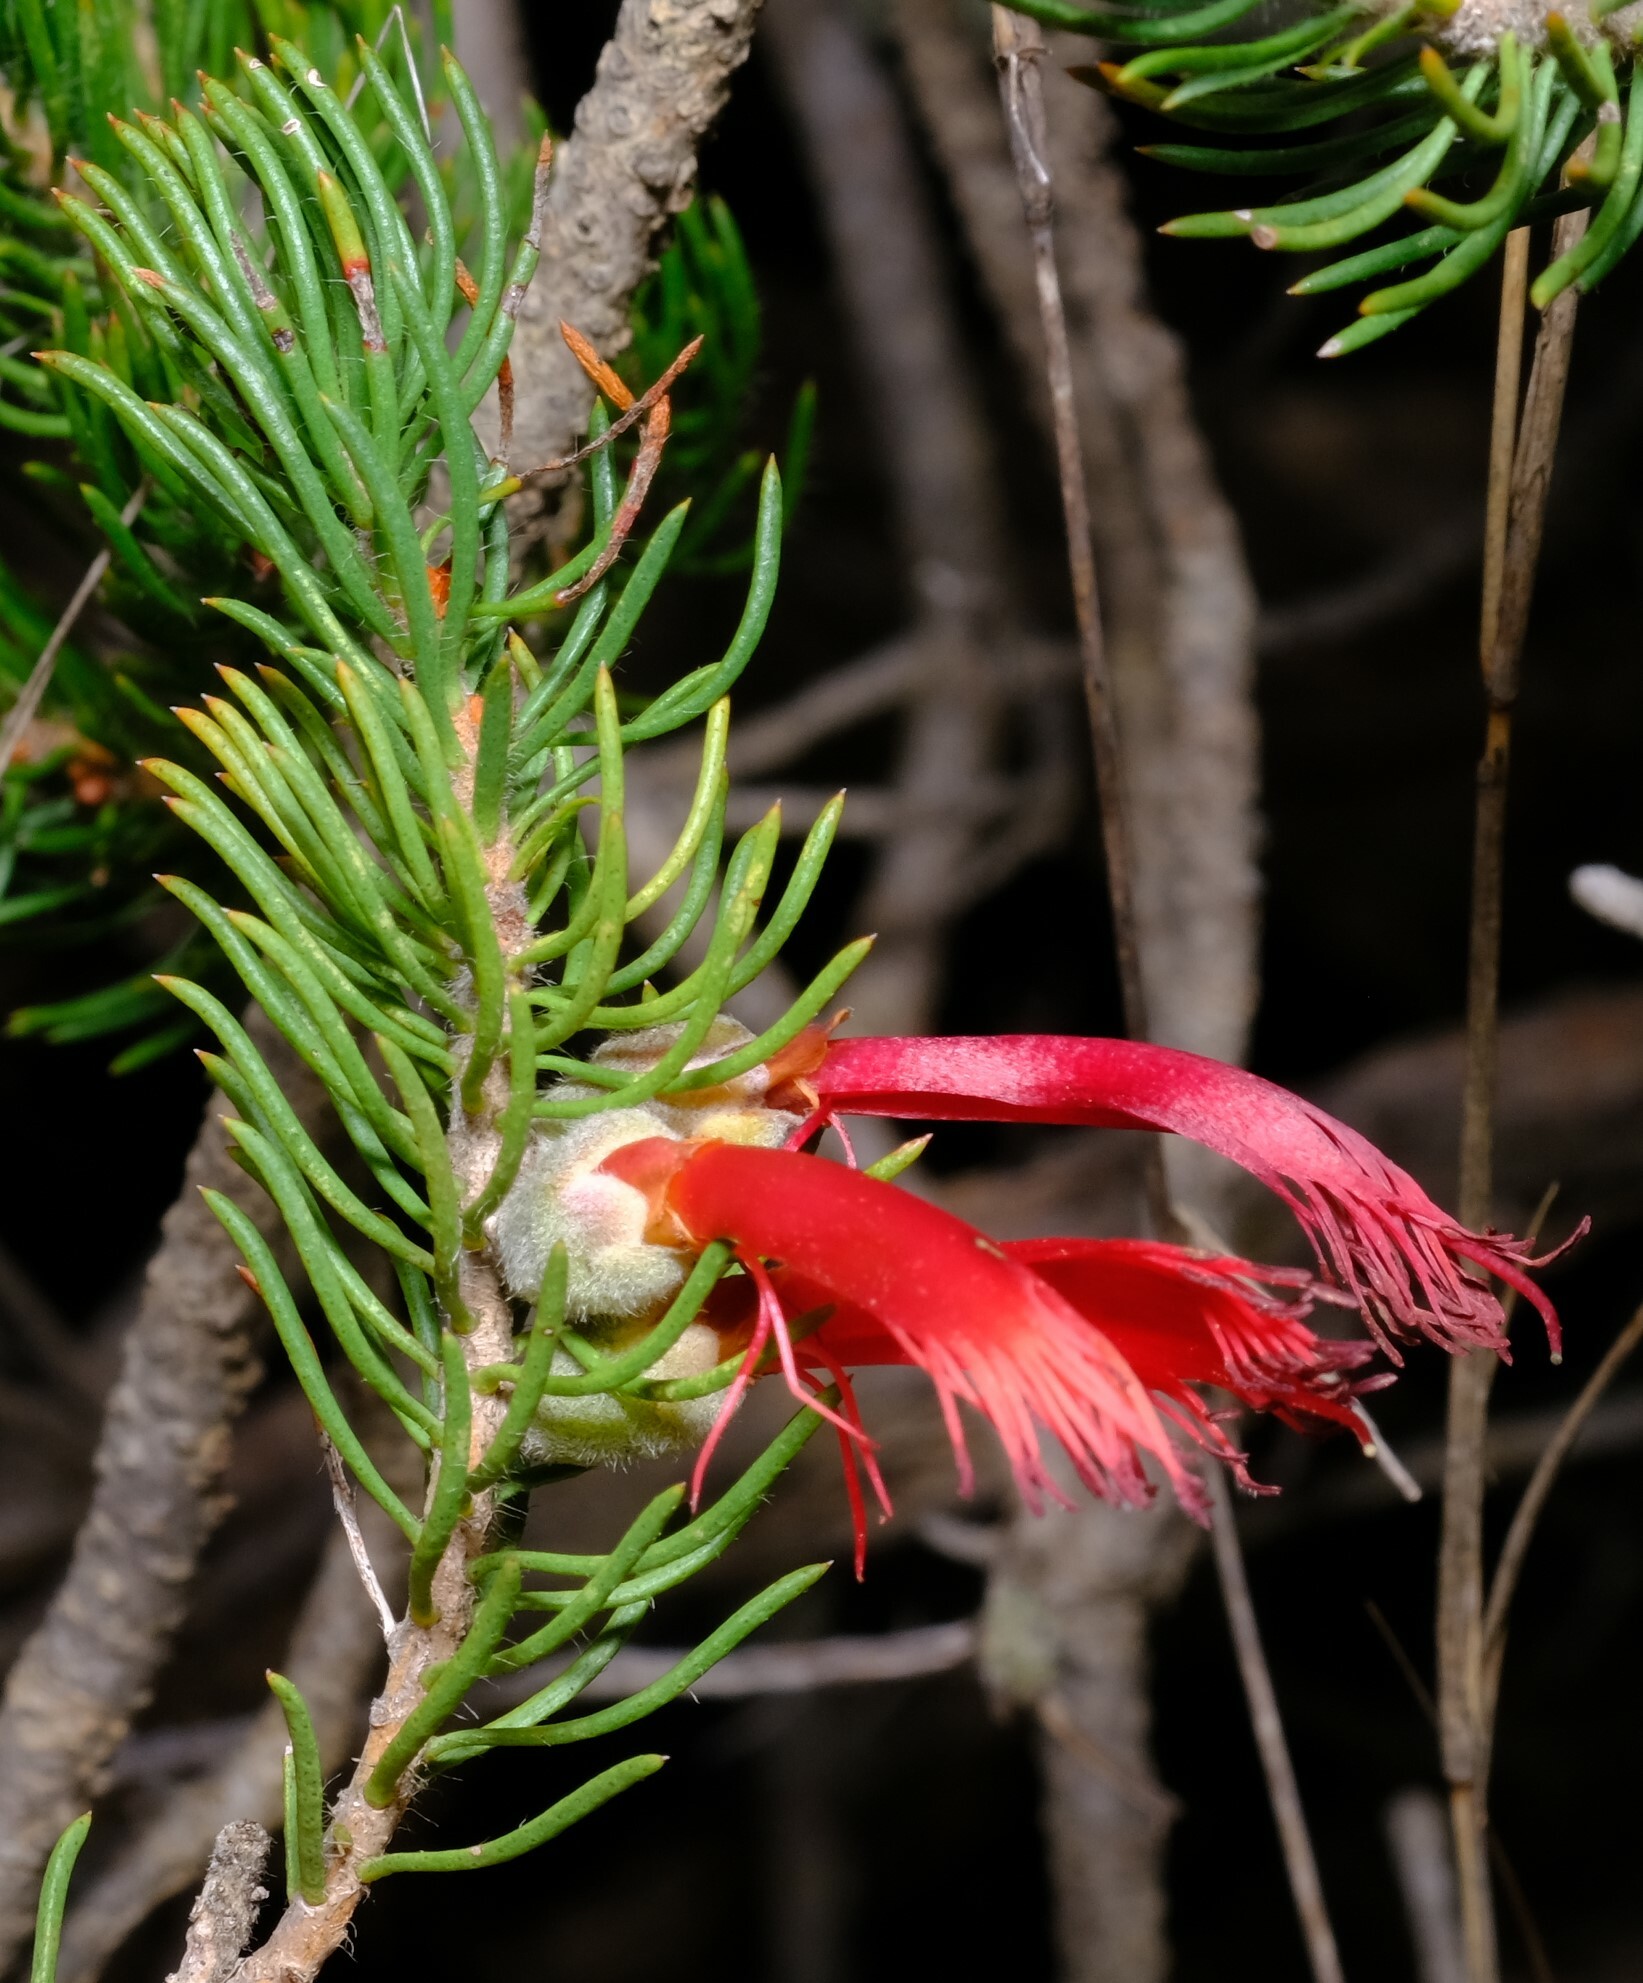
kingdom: Plantae
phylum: Tracheophyta
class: Magnoliopsida
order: Myrtales
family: Myrtaceae
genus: Melaleuca
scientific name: Melaleuca cruenta
